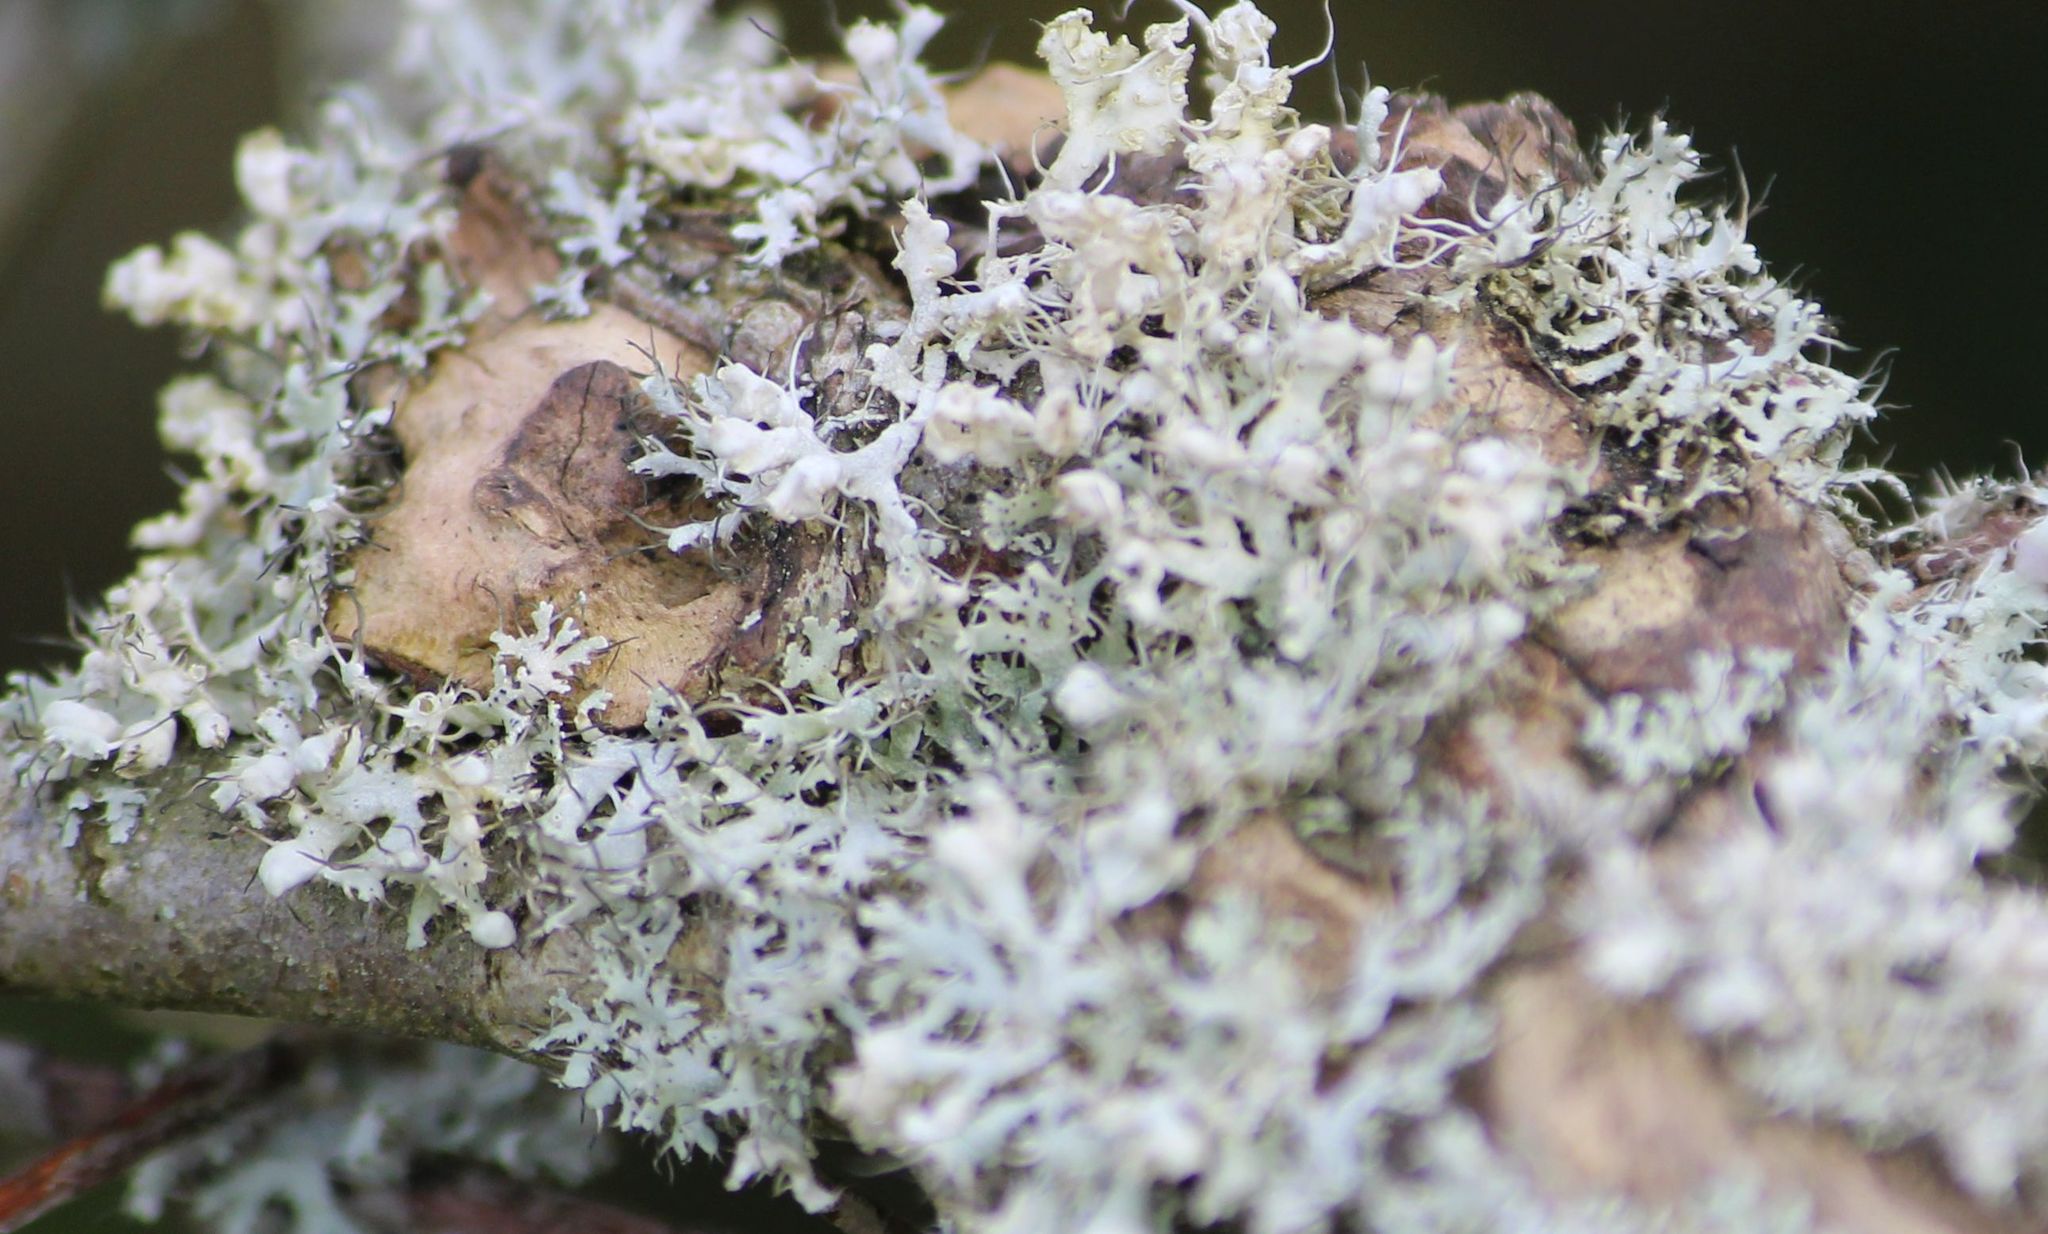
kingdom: Fungi
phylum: Ascomycota
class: Lecanoromycetes
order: Caliciales
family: Physciaceae
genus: Physcia
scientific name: Physcia adscendens
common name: Hooded rosette lichen
